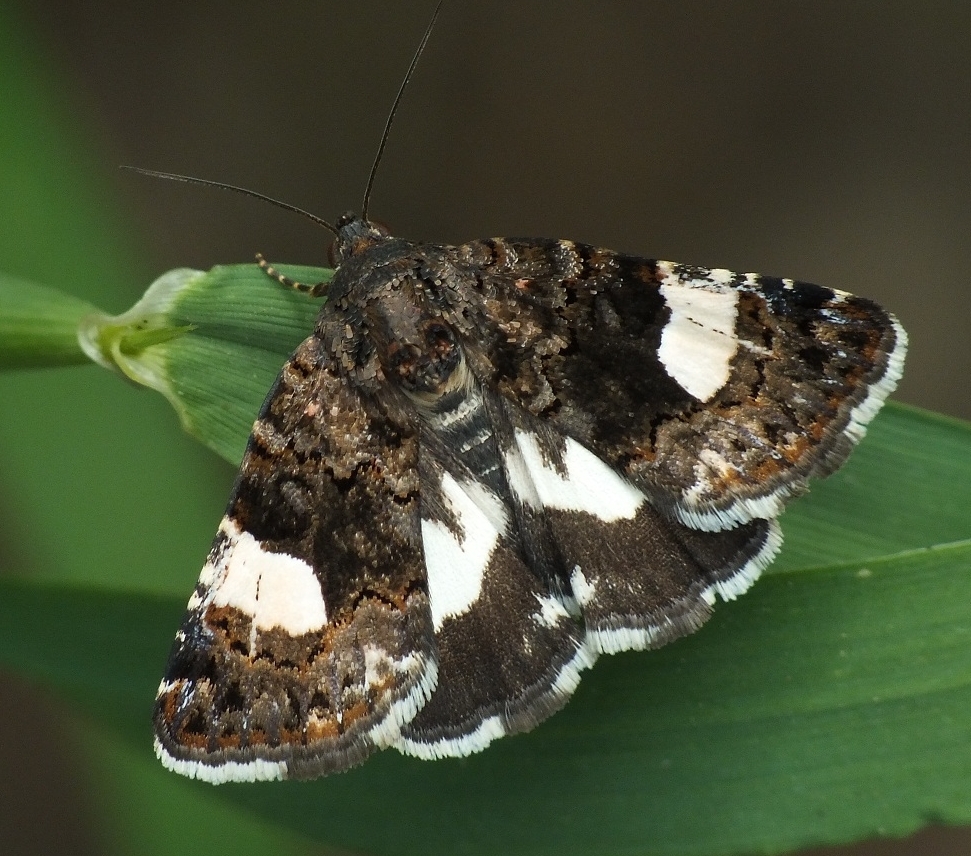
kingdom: Animalia
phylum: Arthropoda
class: Insecta
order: Lepidoptera
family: Erebidae
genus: Tyta
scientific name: Tyta luctuosa
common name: Four-spotted
